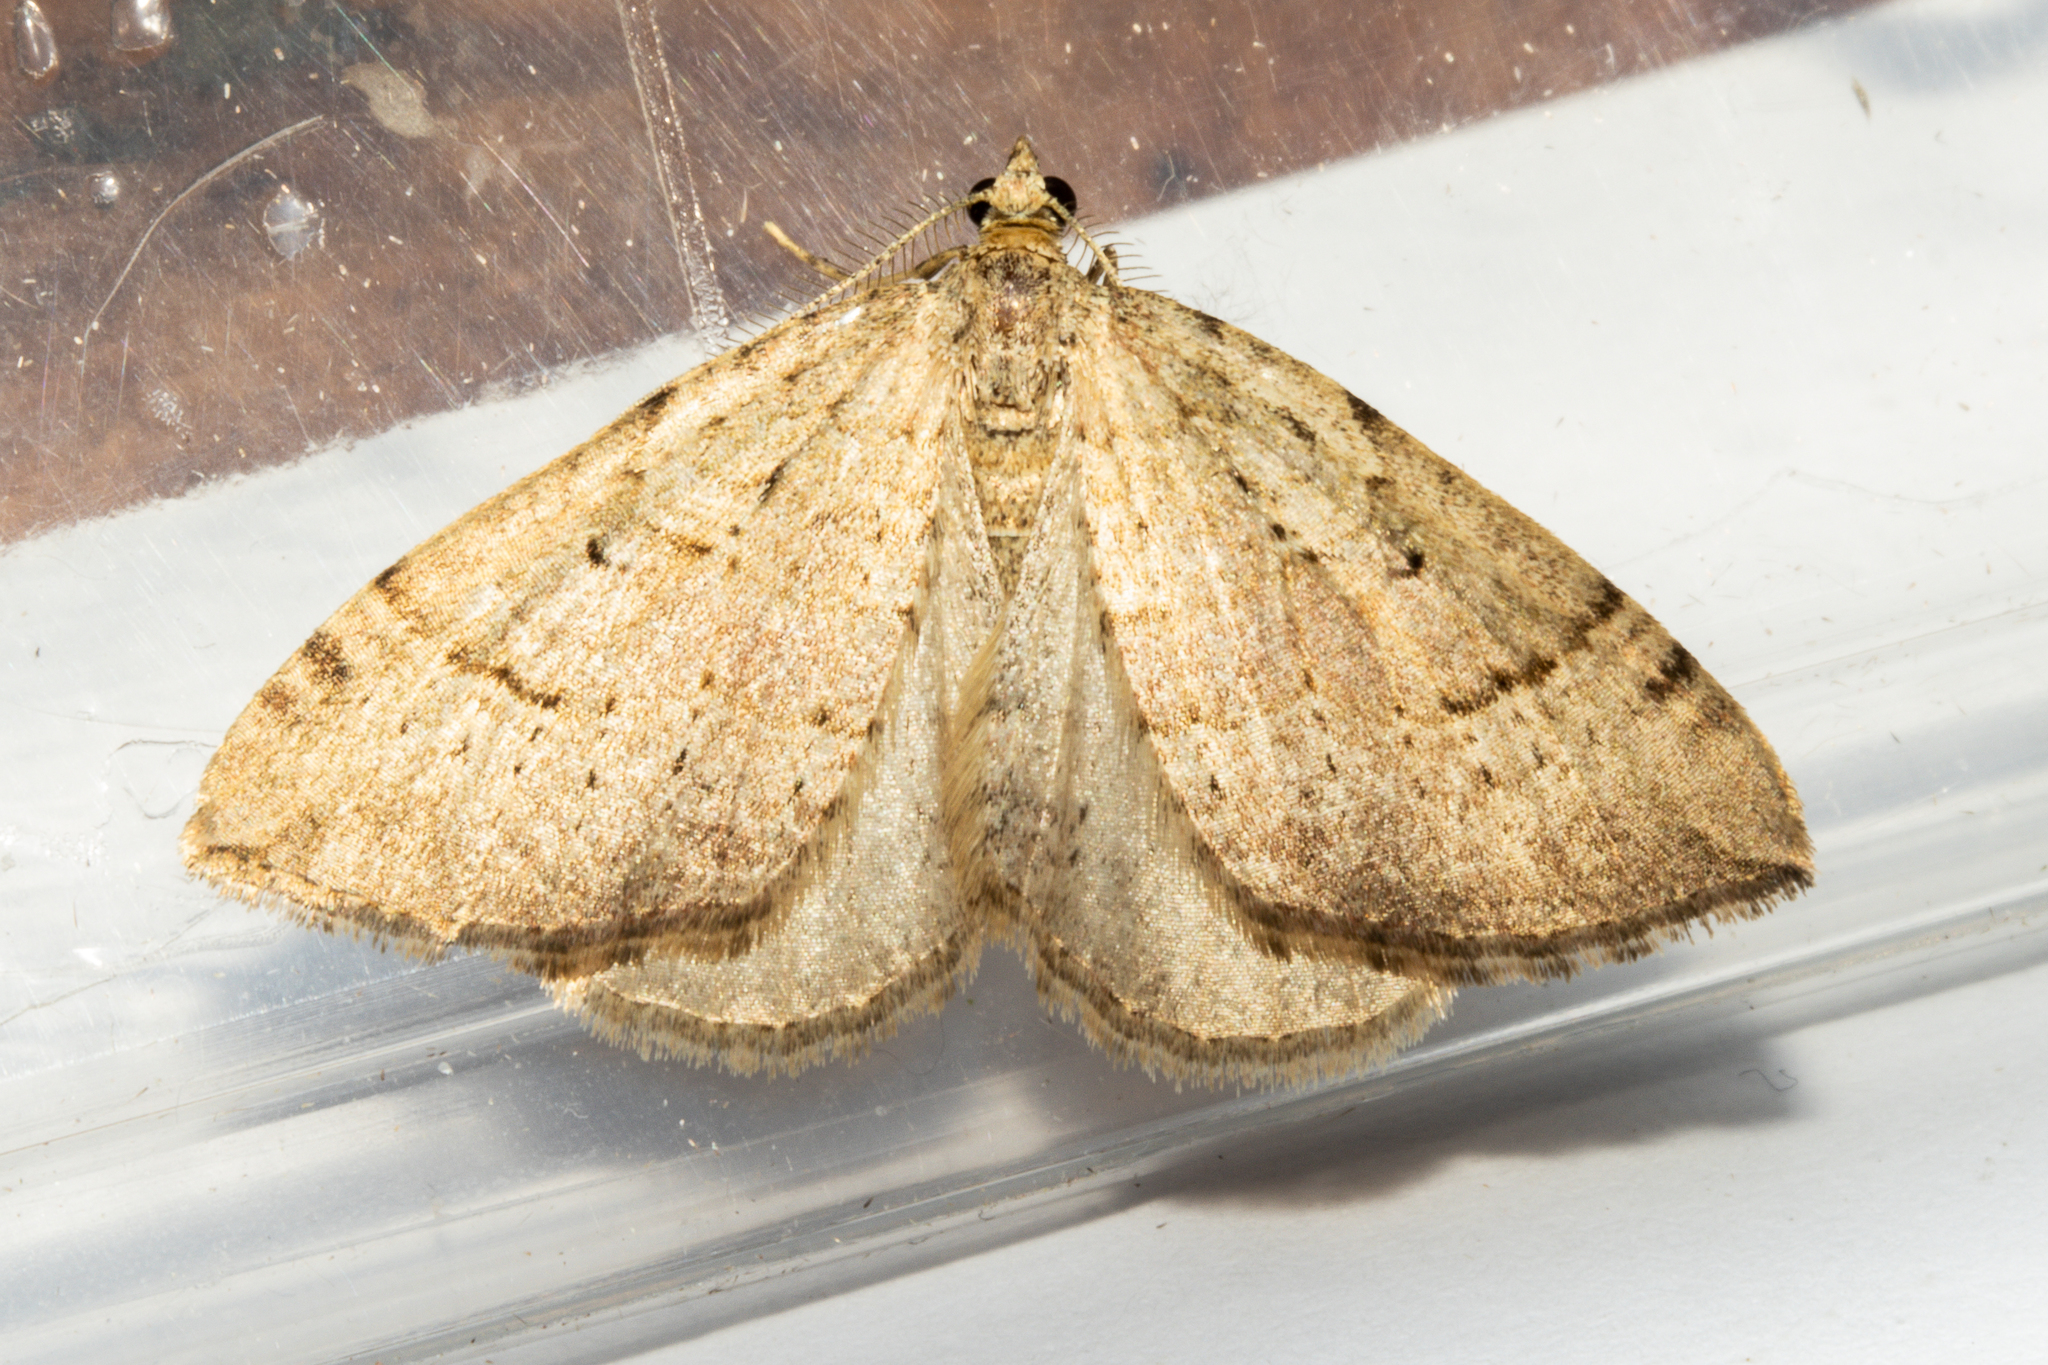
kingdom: Animalia
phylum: Arthropoda
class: Insecta
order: Lepidoptera
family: Geometridae
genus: Epyaxa
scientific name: Epyaxa rosearia
